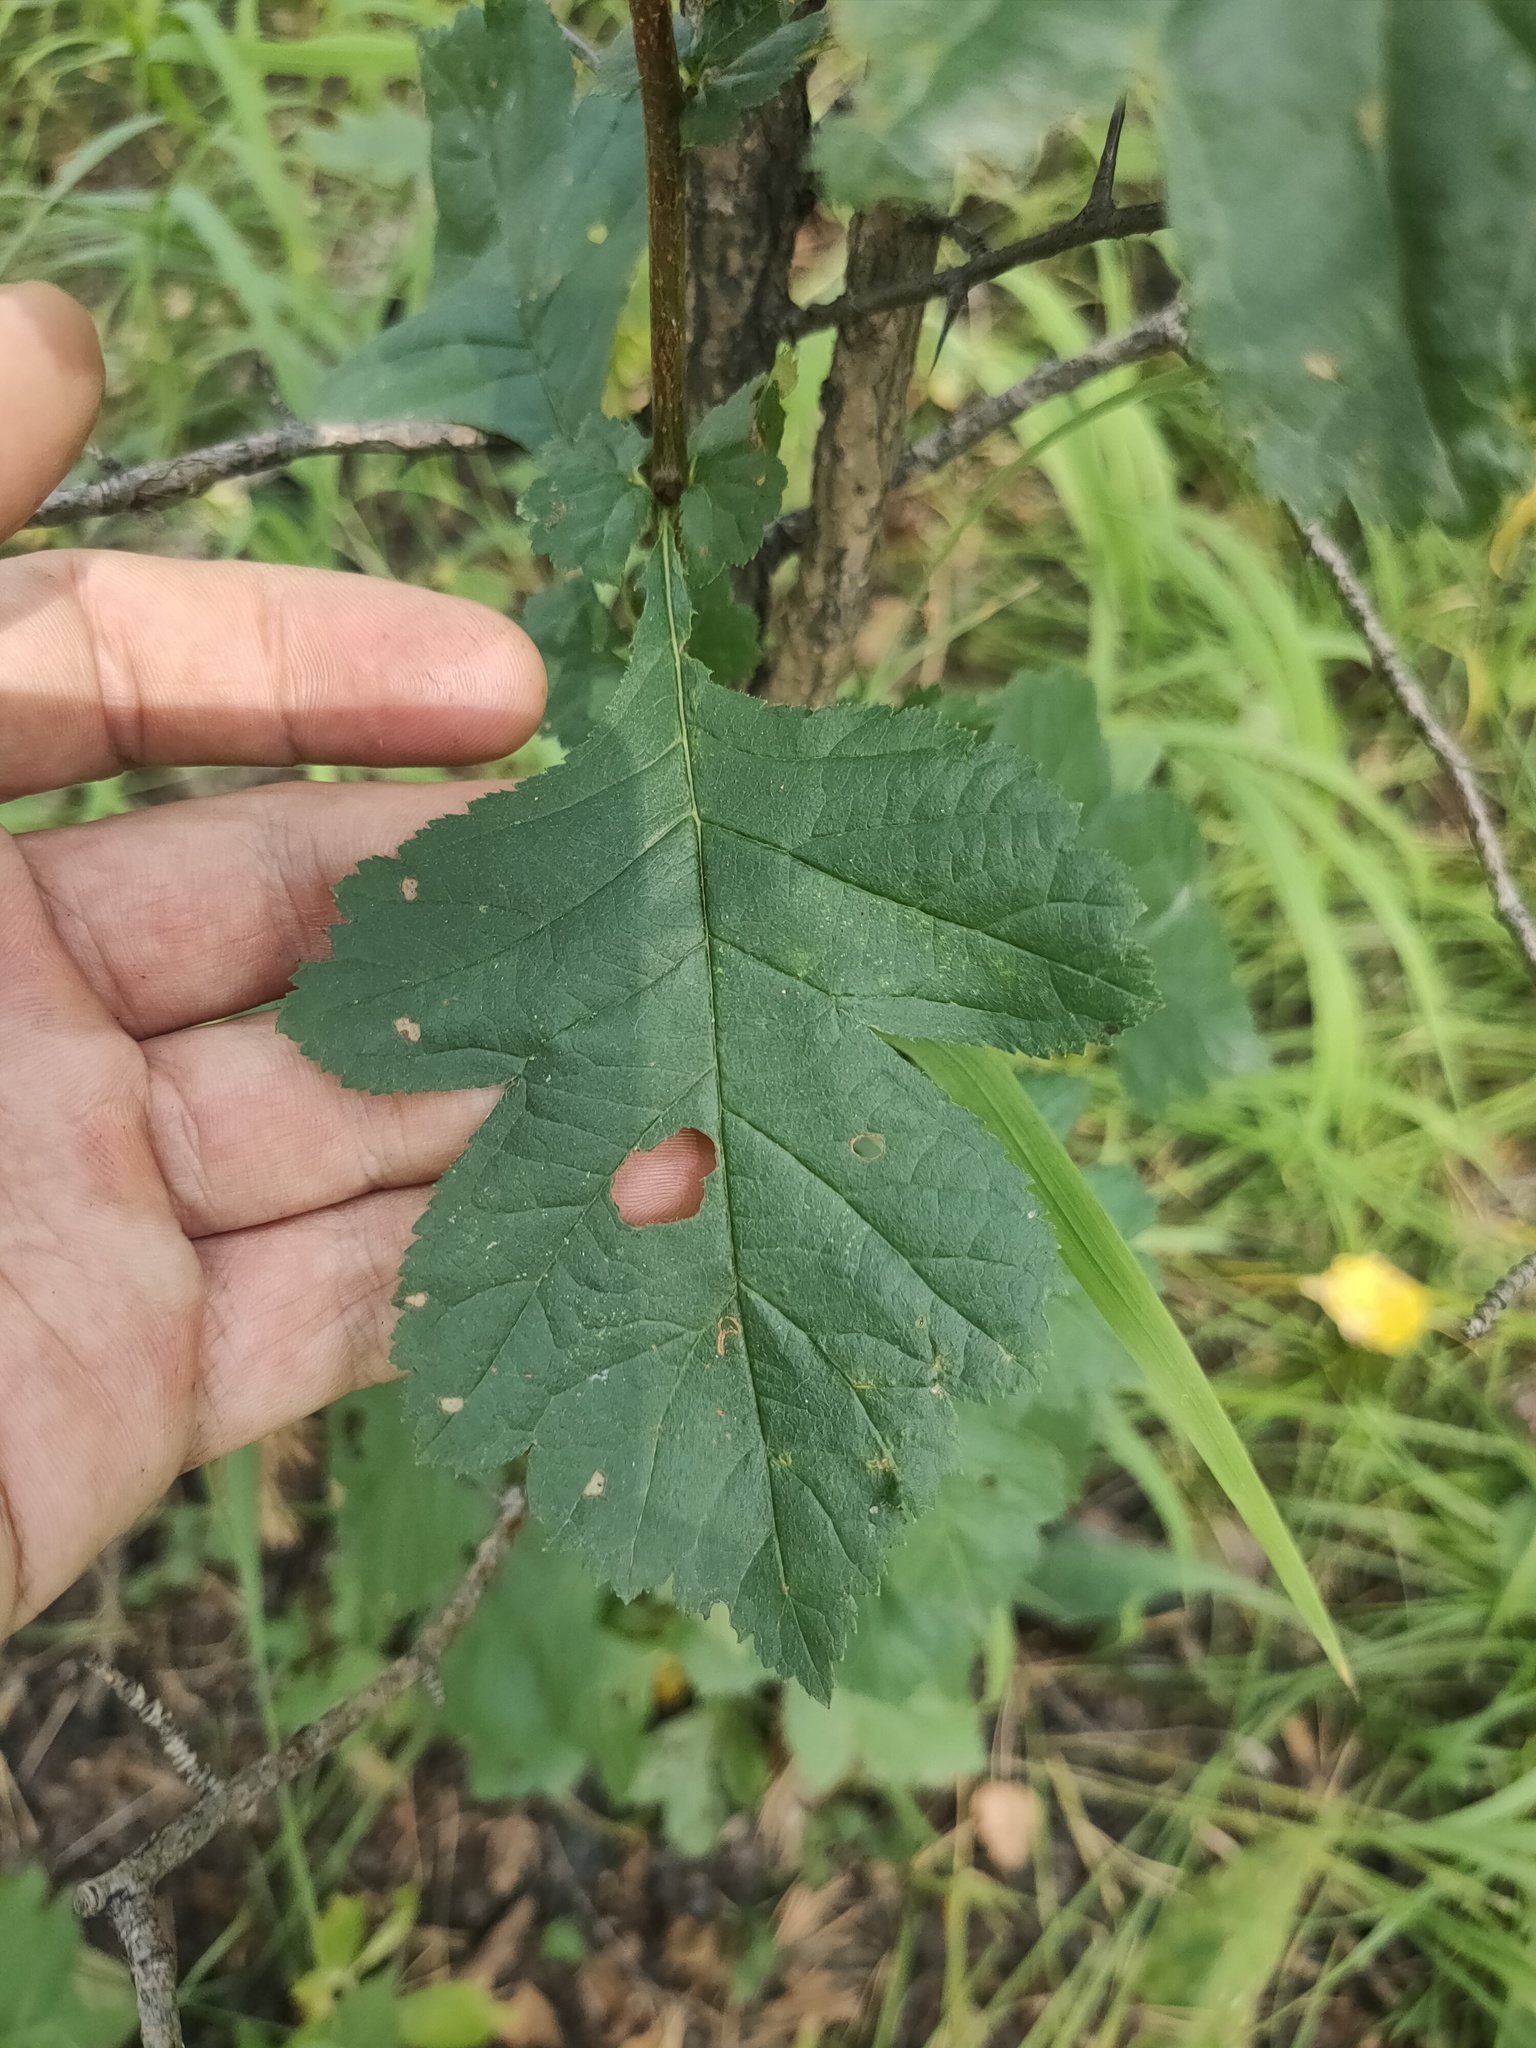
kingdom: Plantae
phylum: Tracheophyta
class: Magnoliopsida
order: Rosales
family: Rosaceae
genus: Crataegus
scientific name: Crataegus
